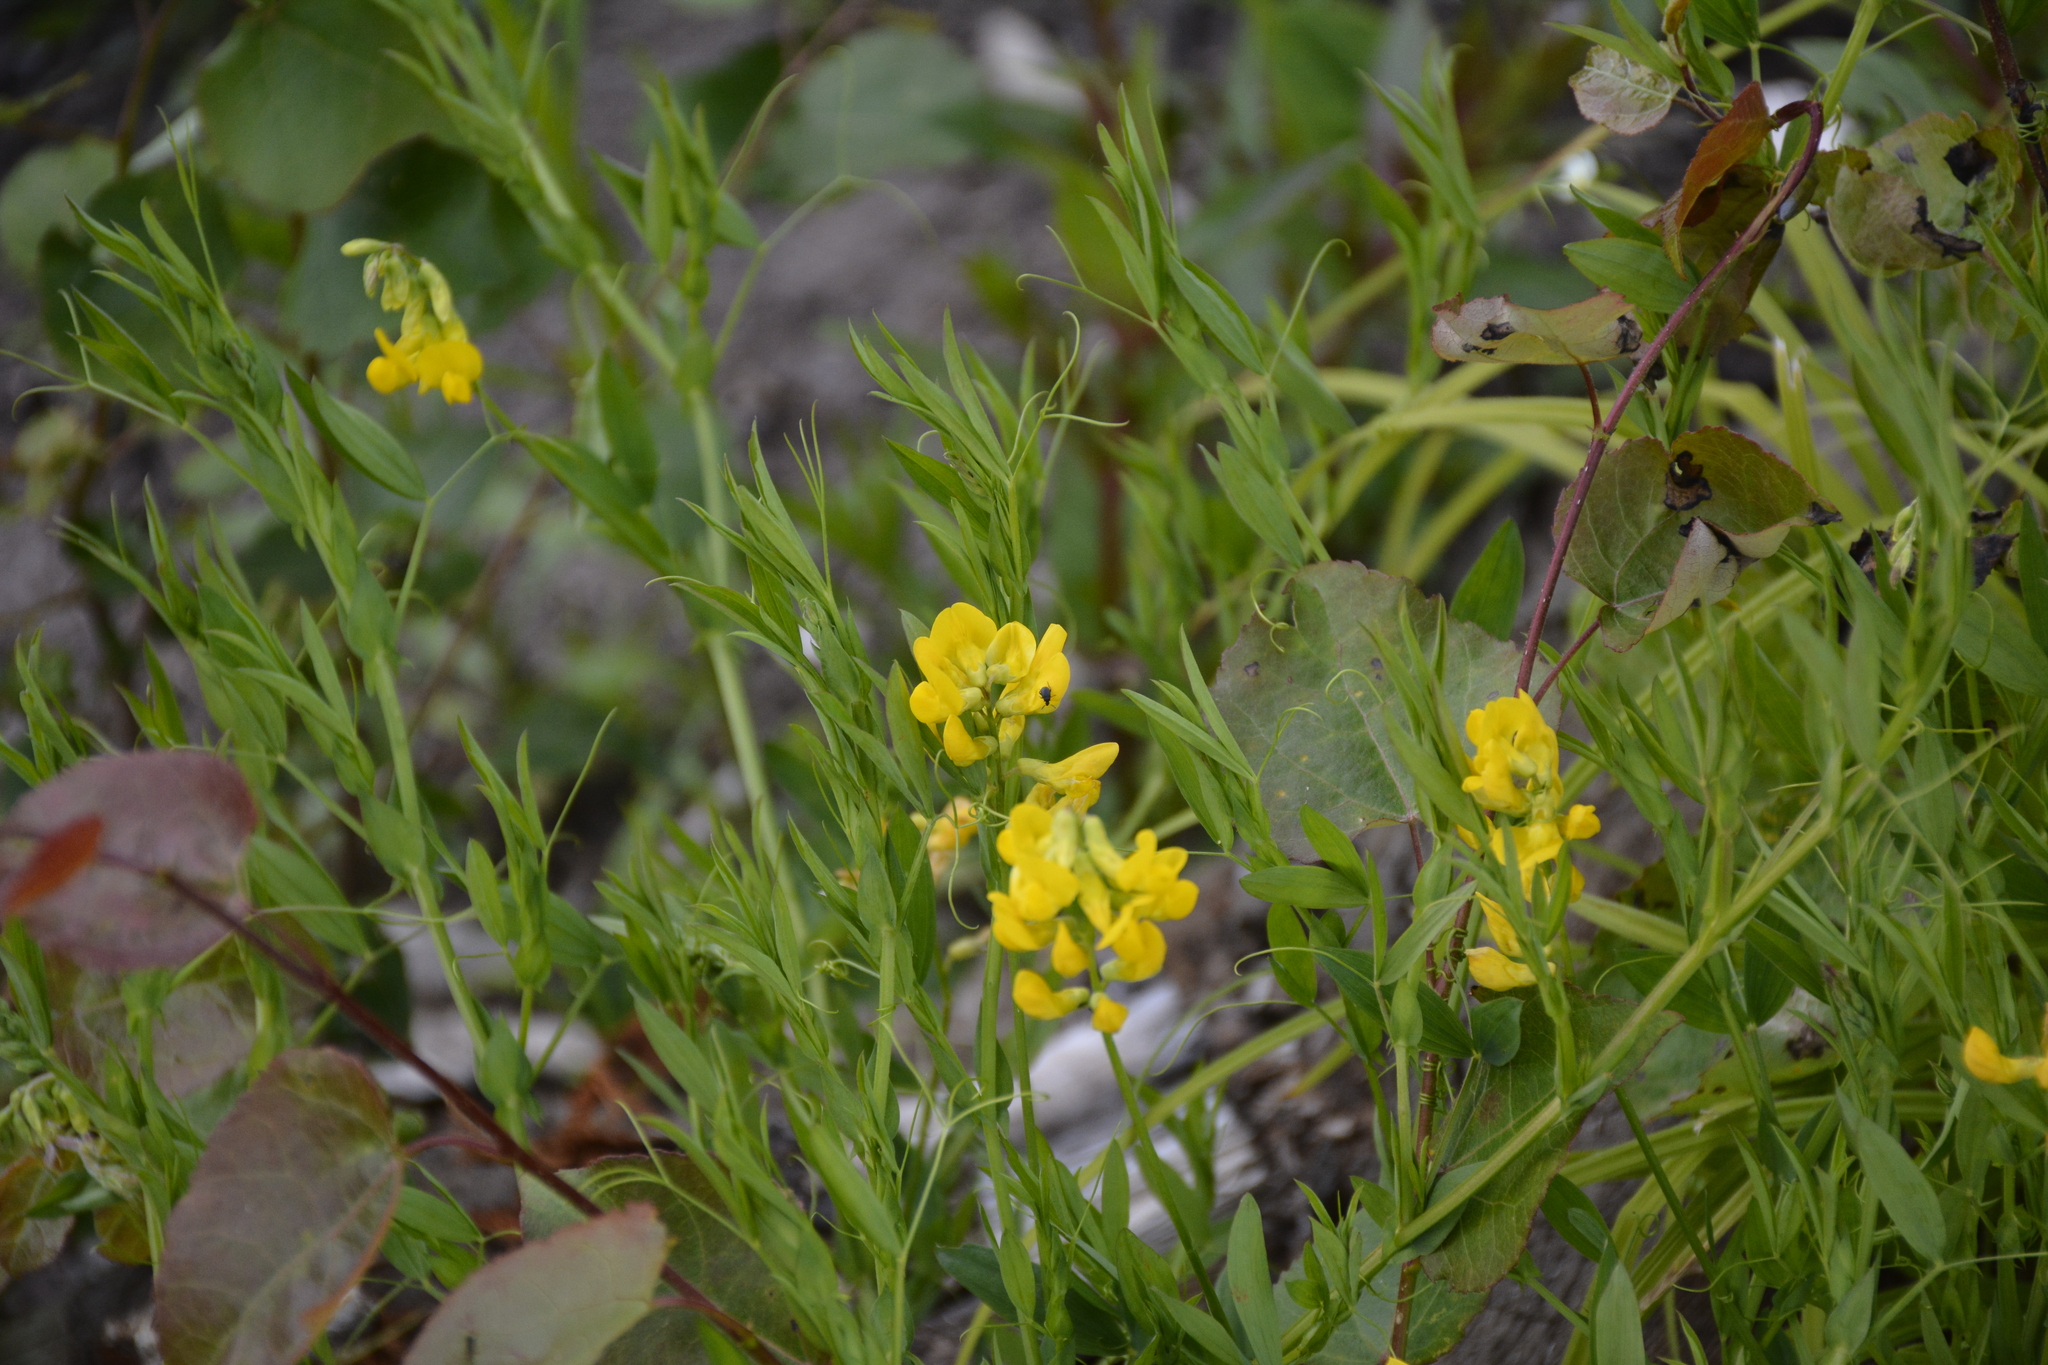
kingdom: Plantae
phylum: Tracheophyta
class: Magnoliopsida
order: Fabales
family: Fabaceae
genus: Lathyrus
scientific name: Lathyrus pratensis
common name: Meadow vetchling
